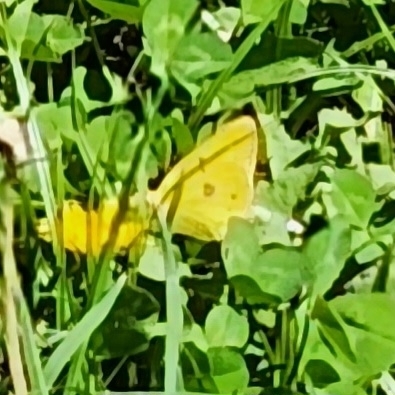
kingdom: Animalia
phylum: Arthropoda
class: Insecta
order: Lepidoptera
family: Pieridae
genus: Colias
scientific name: Colias eurytheme
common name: Alfalfa butterfly
